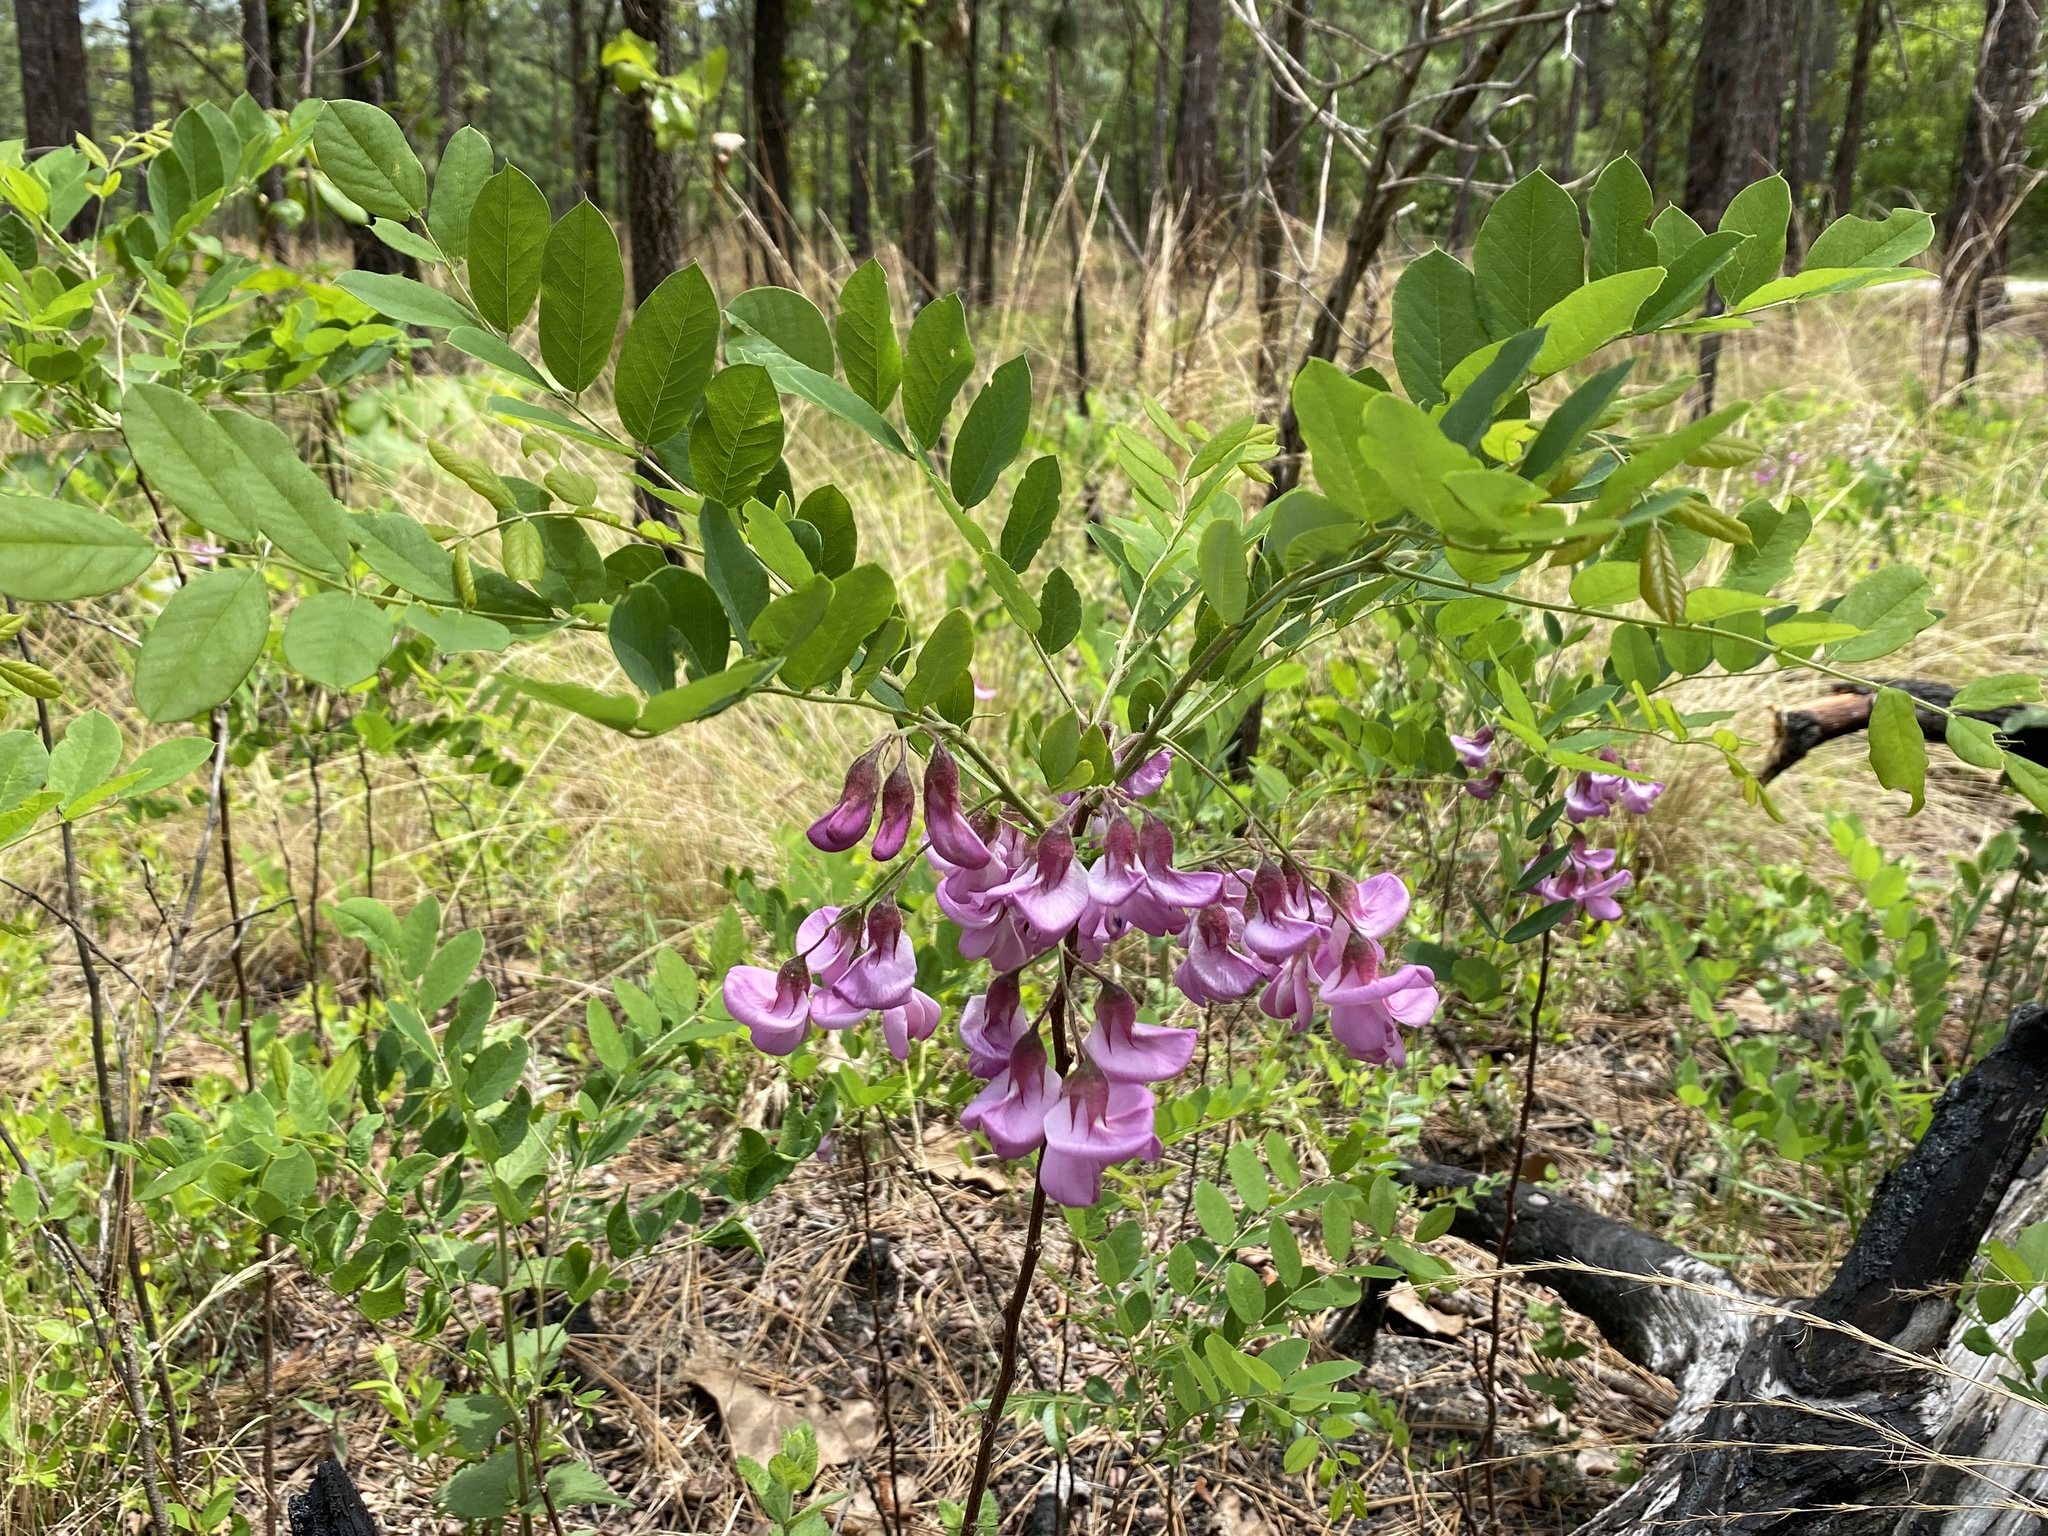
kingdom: Plantae
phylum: Tracheophyta
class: Magnoliopsida
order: Fabales
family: Fabaceae
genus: Robinia
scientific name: Robinia hispida
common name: Bristly locust
